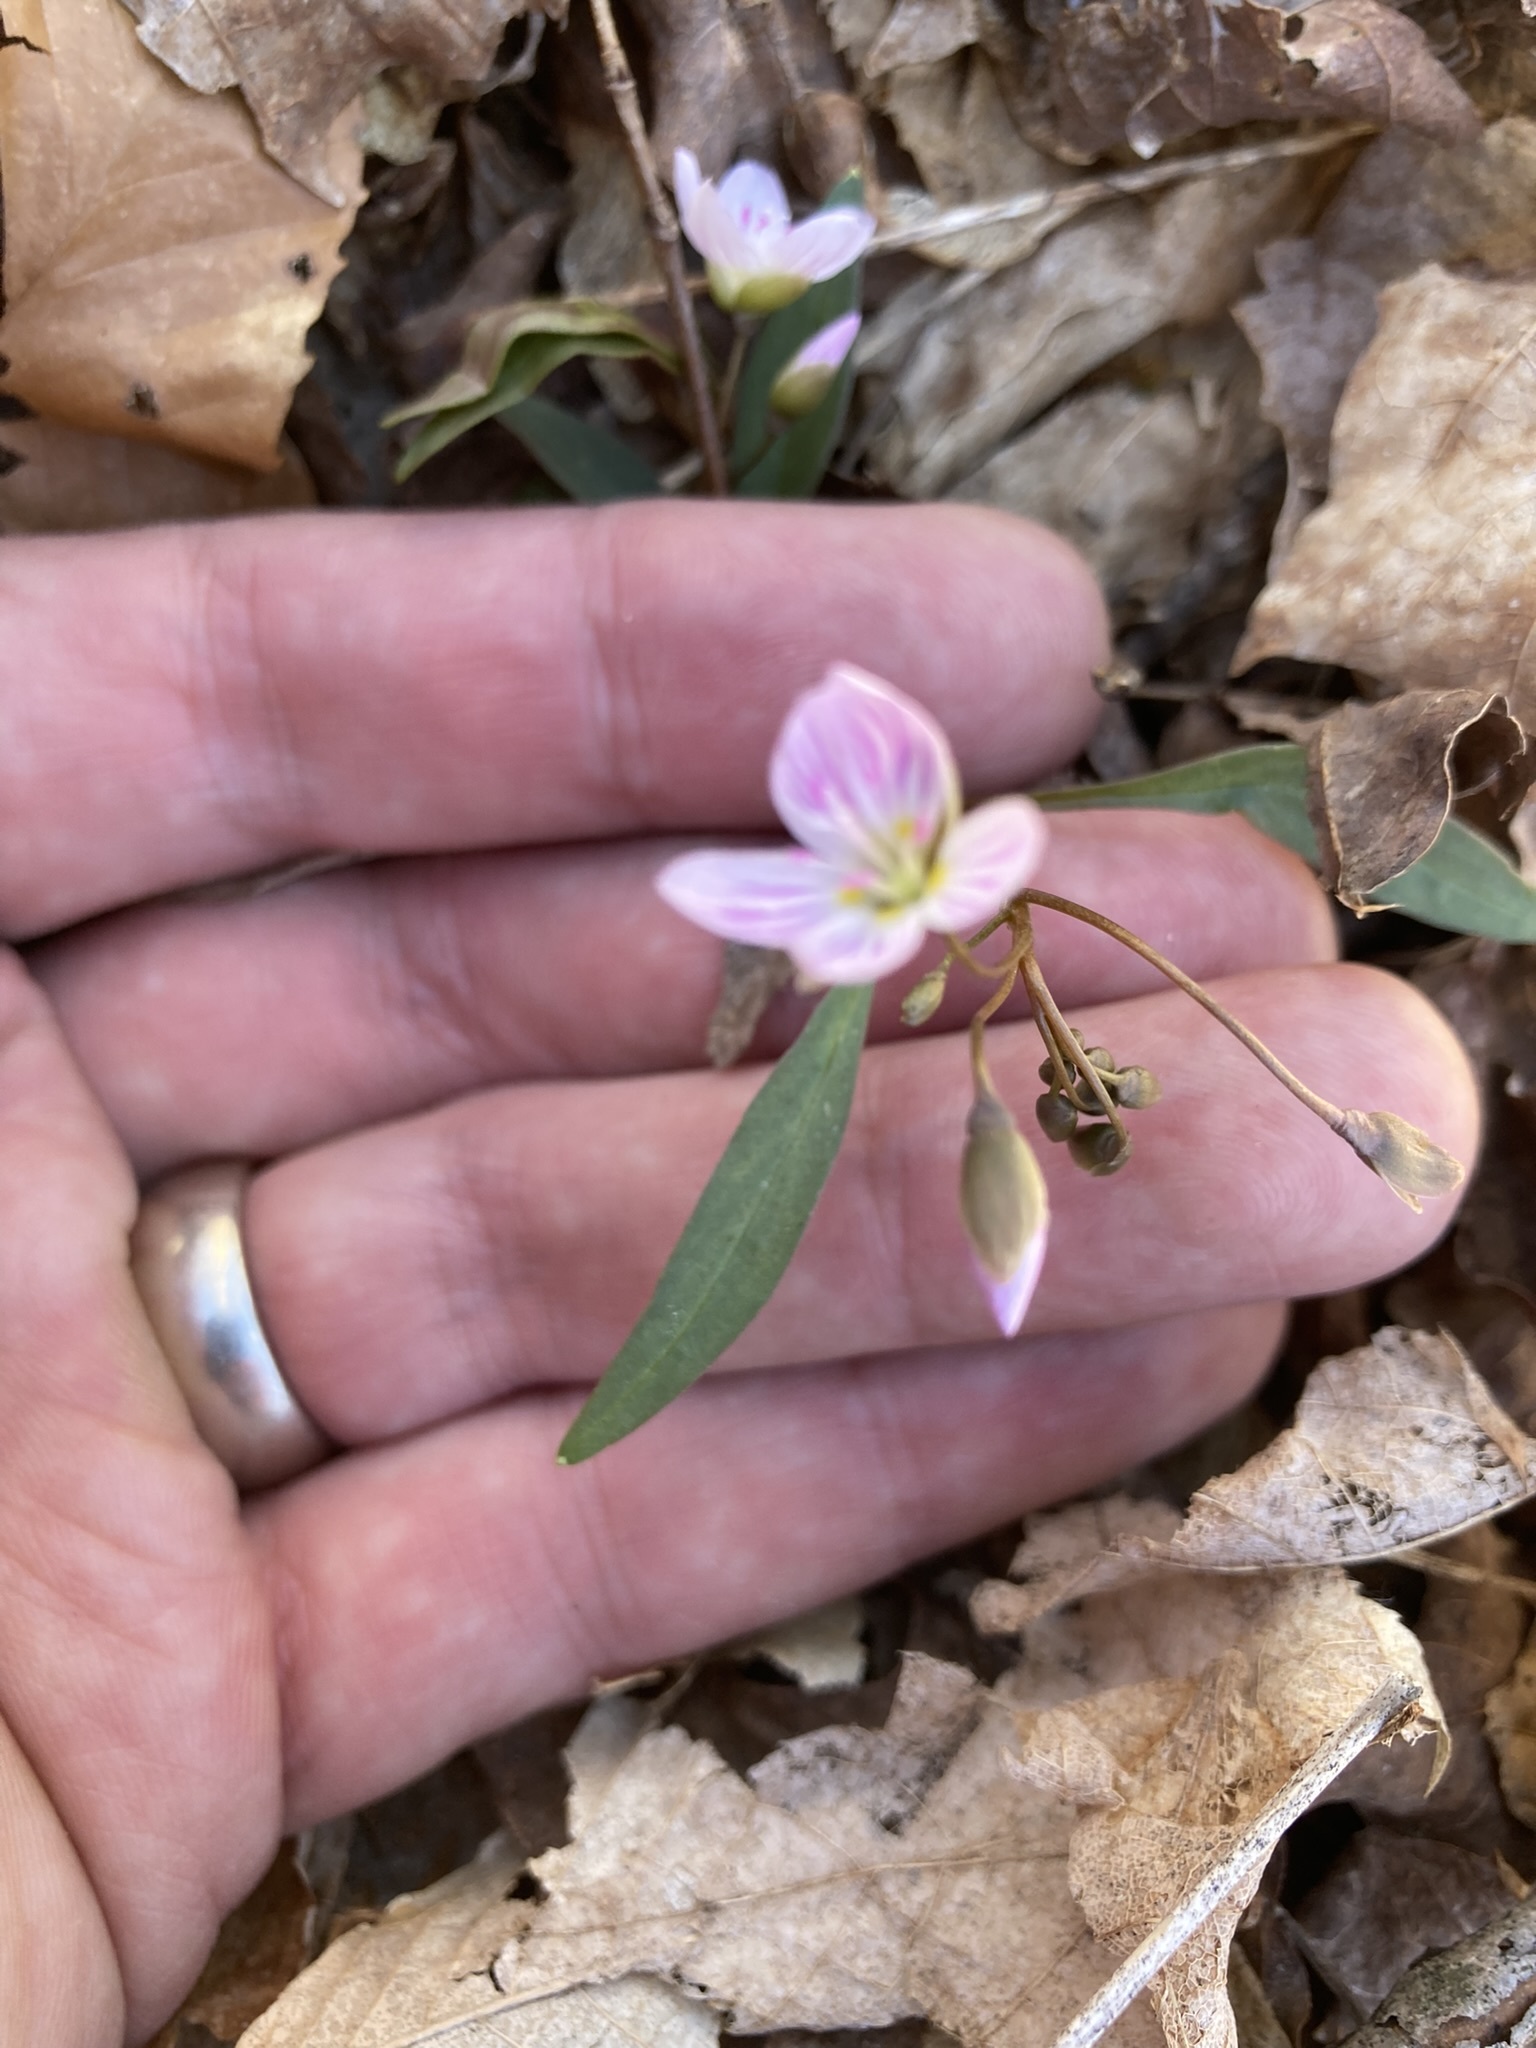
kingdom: Plantae
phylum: Tracheophyta
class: Magnoliopsida
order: Caryophyllales
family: Montiaceae
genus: Claytonia
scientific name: Claytonia caroliniana
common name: Carolina spring beauty
